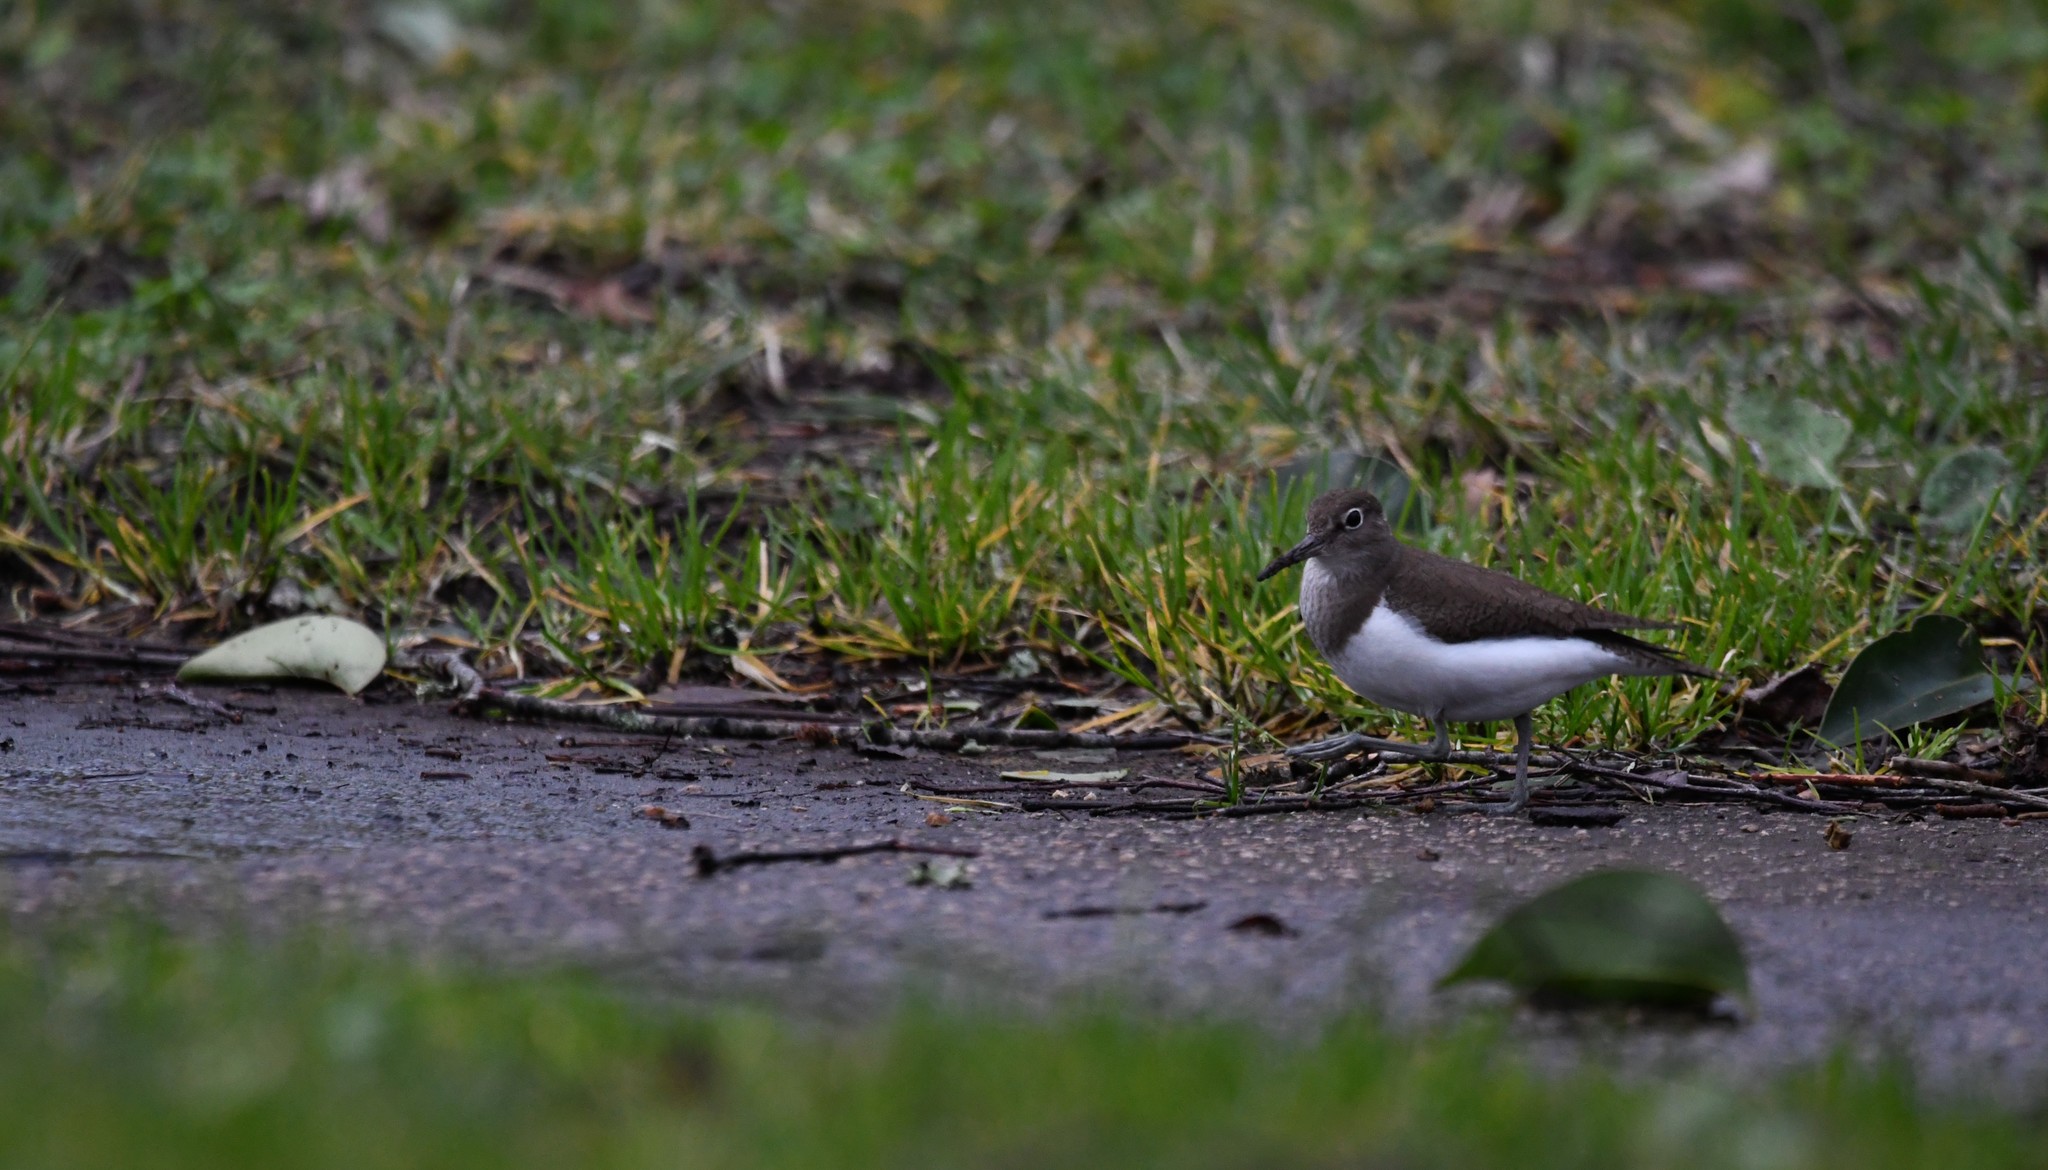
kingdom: Animalia
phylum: Chordata
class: Aves
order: Charadriiformes
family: Scolopacidae
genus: Actitis
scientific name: Actitis hypoleucos
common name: Common sandpiper
